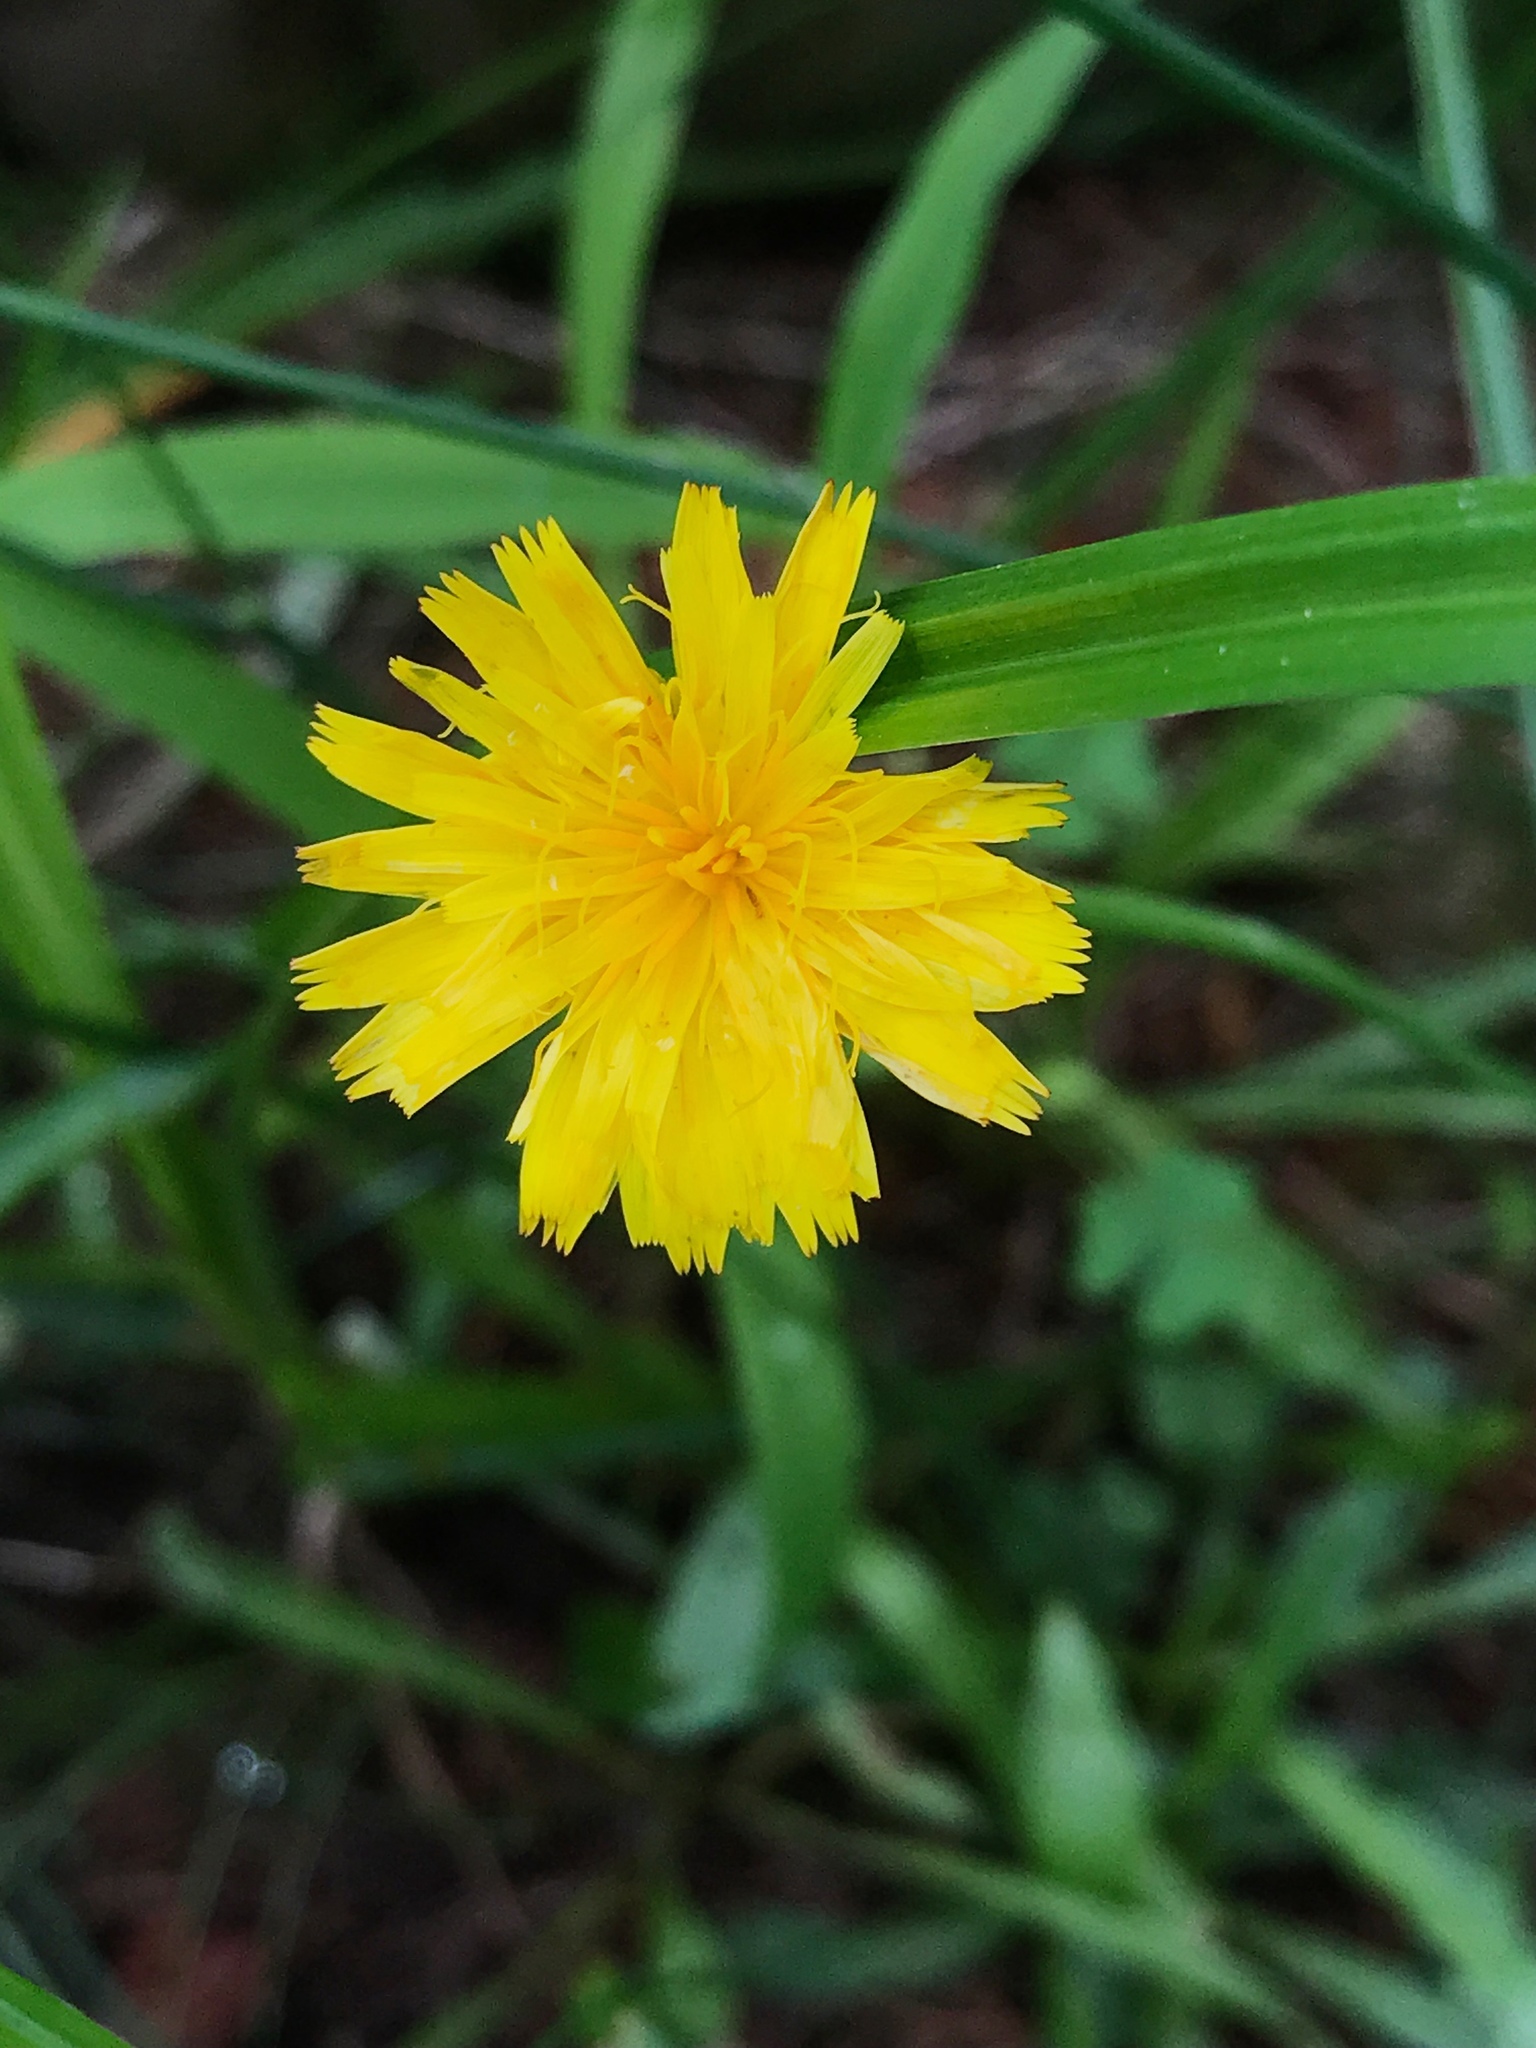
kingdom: Plantae
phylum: Tracheophyta
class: Magnoliopsida
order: Asterales
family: Asteraceae
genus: Hypochaeris
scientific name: Hypochaeris radicata
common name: Flatweed
